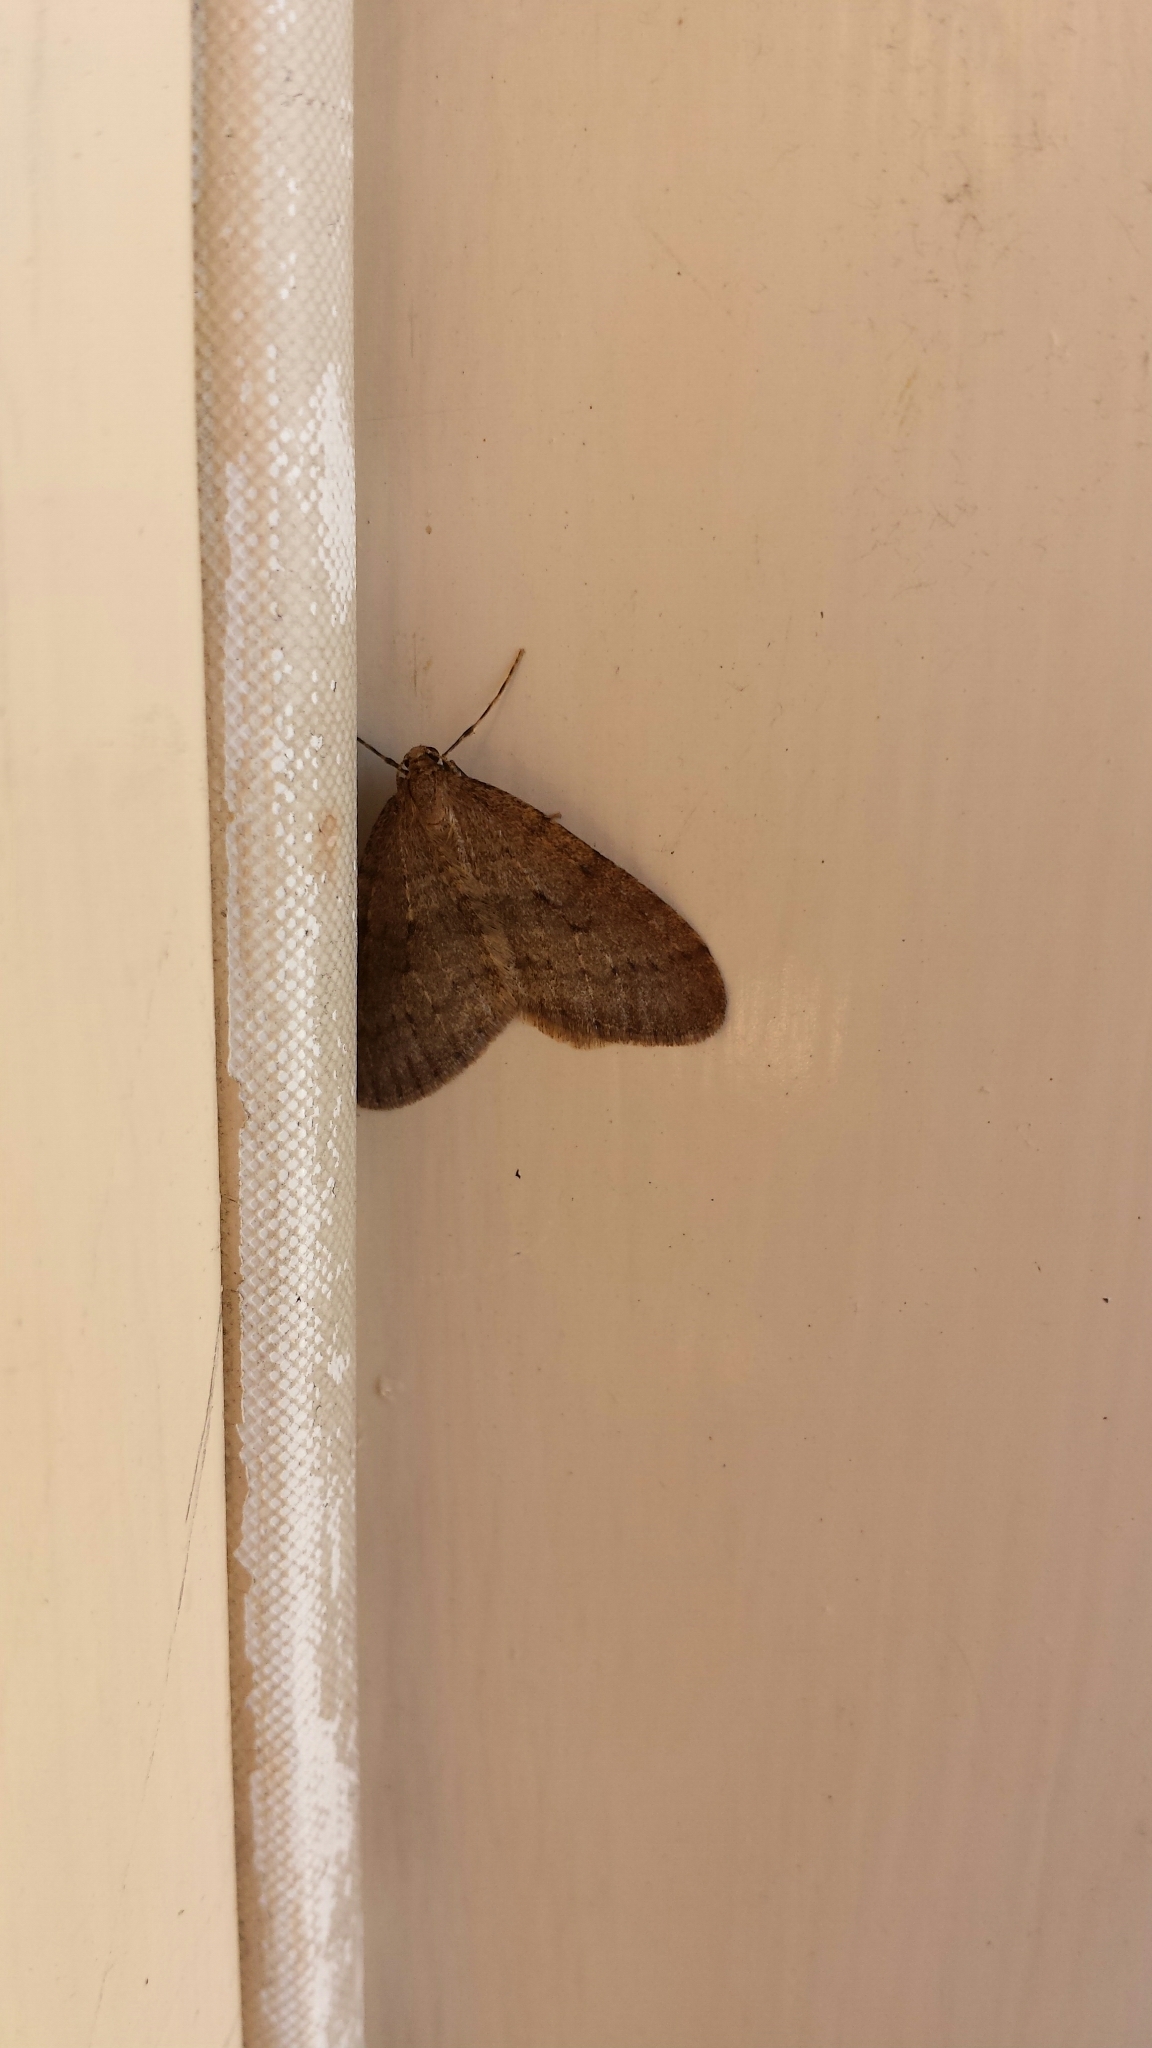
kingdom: Animalia
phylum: Arthropoda
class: Insecta
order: Lepidoptera
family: Geometridae
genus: Operophtera
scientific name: Operophtera bruceata
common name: Bruce spanworm
